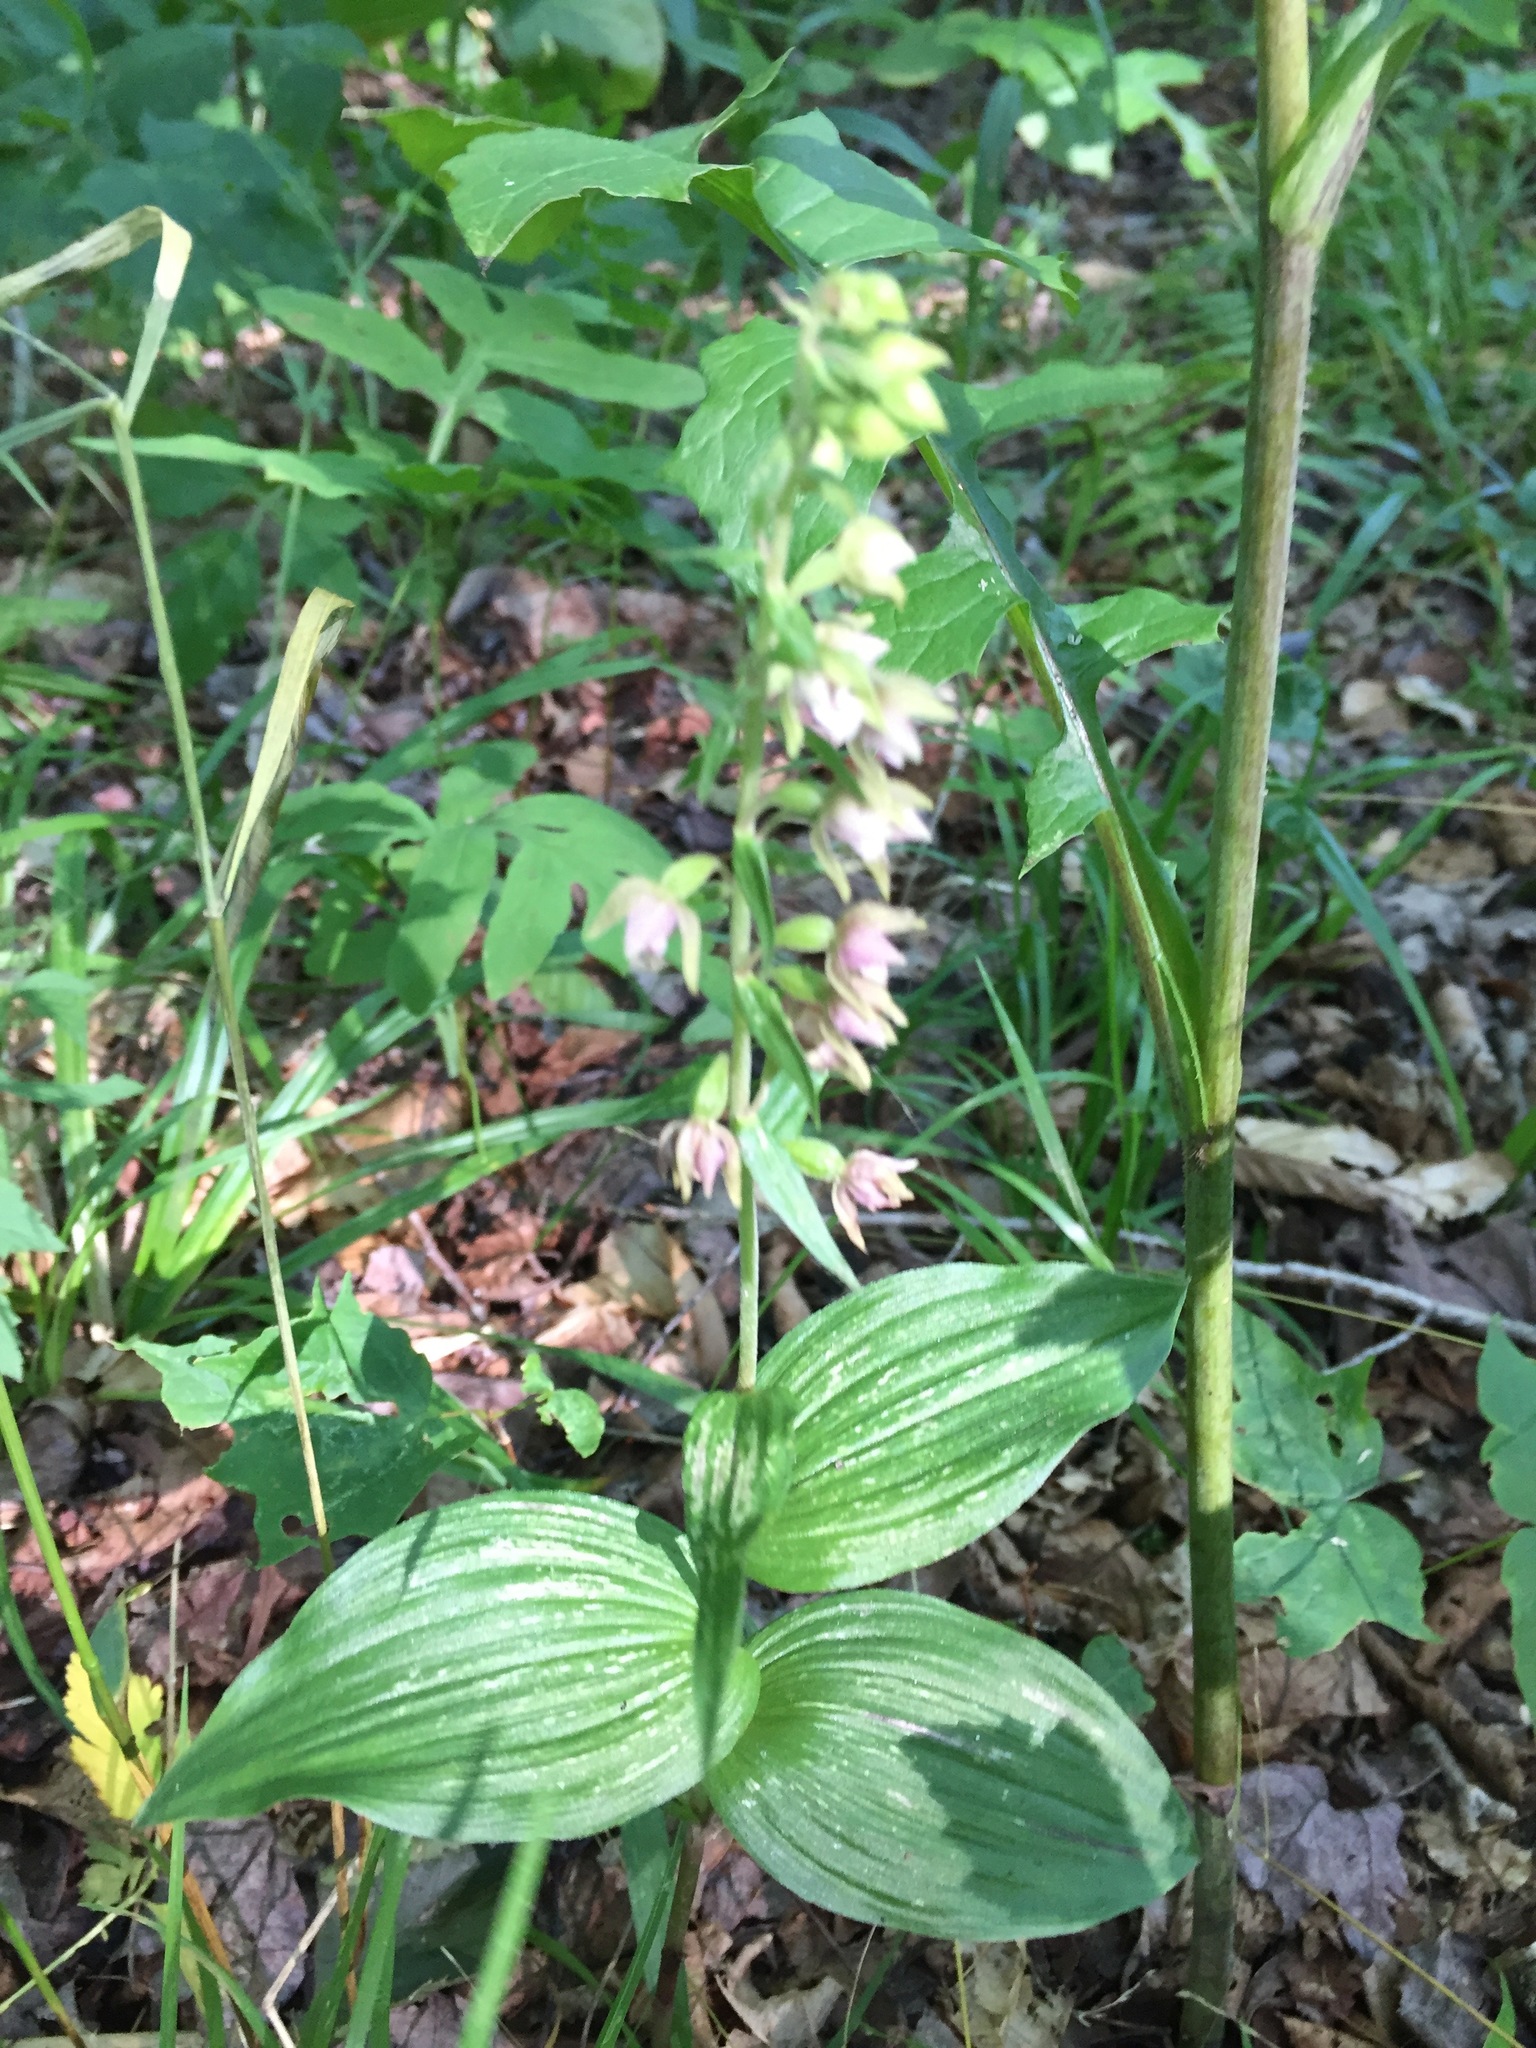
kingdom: Plantae
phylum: Tracheophyta
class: Liliopsida
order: Asparagales
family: Orchidaceae
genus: Epipactis
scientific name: Epipactis helleborine
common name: Broad-leaved helleborine
